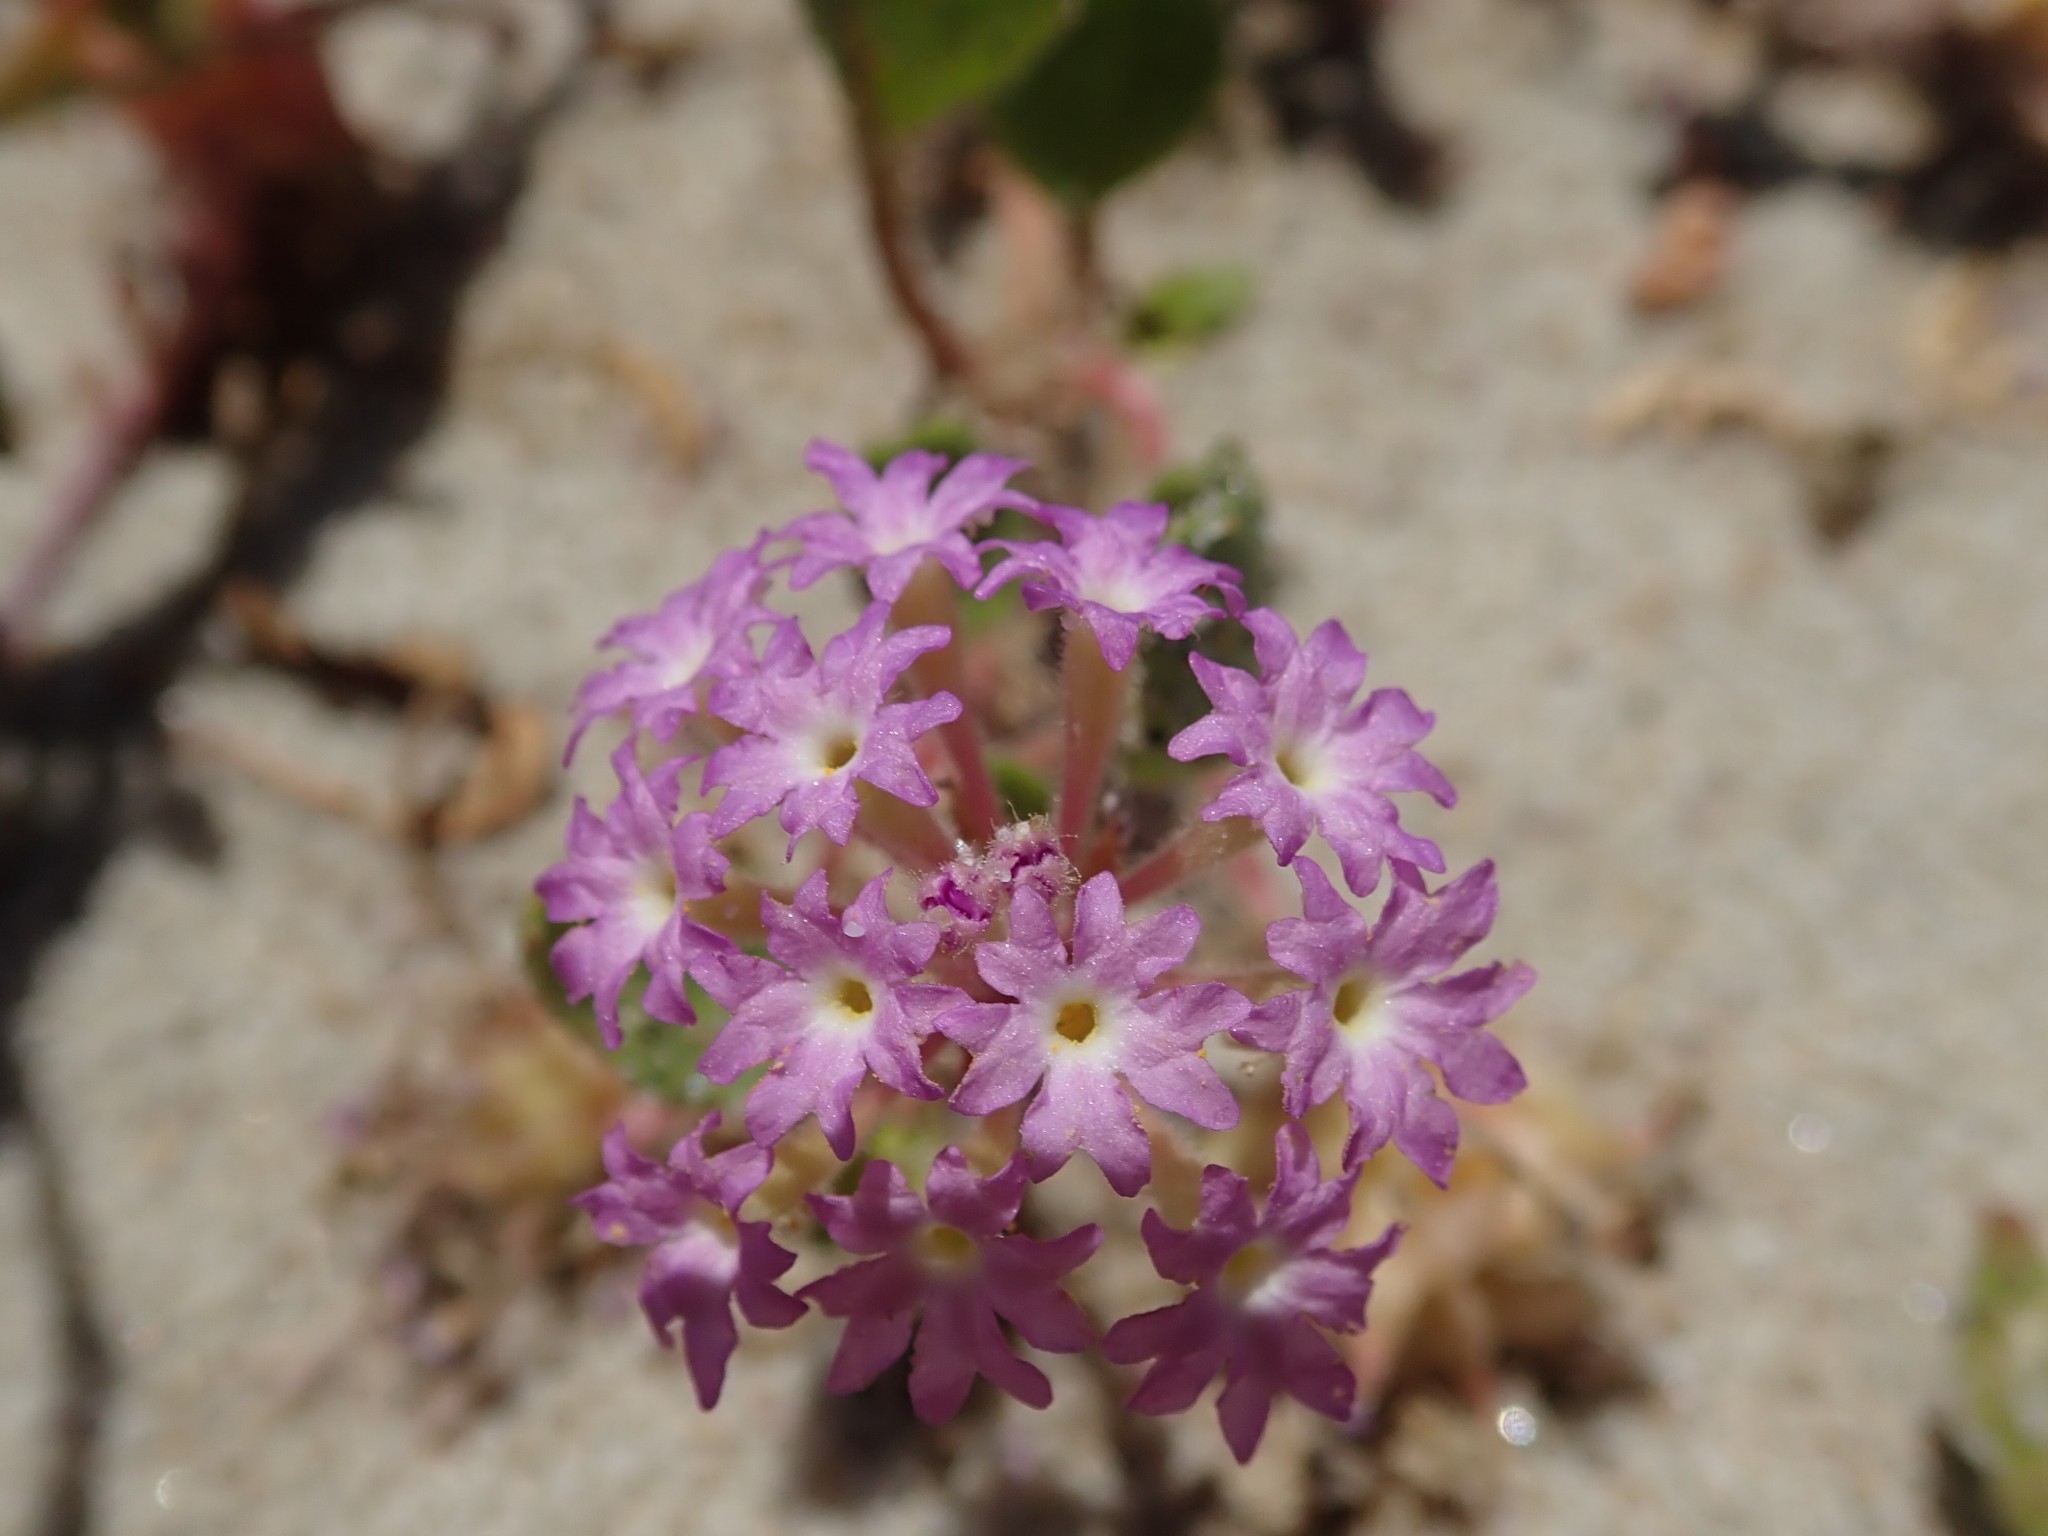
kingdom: Plantae
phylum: Tracheophyta
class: Magnoliopsida
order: Caryophyllales
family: Nyctaginaceae
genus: Abronia
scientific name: Abronia umbellata
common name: Sand-verbena
